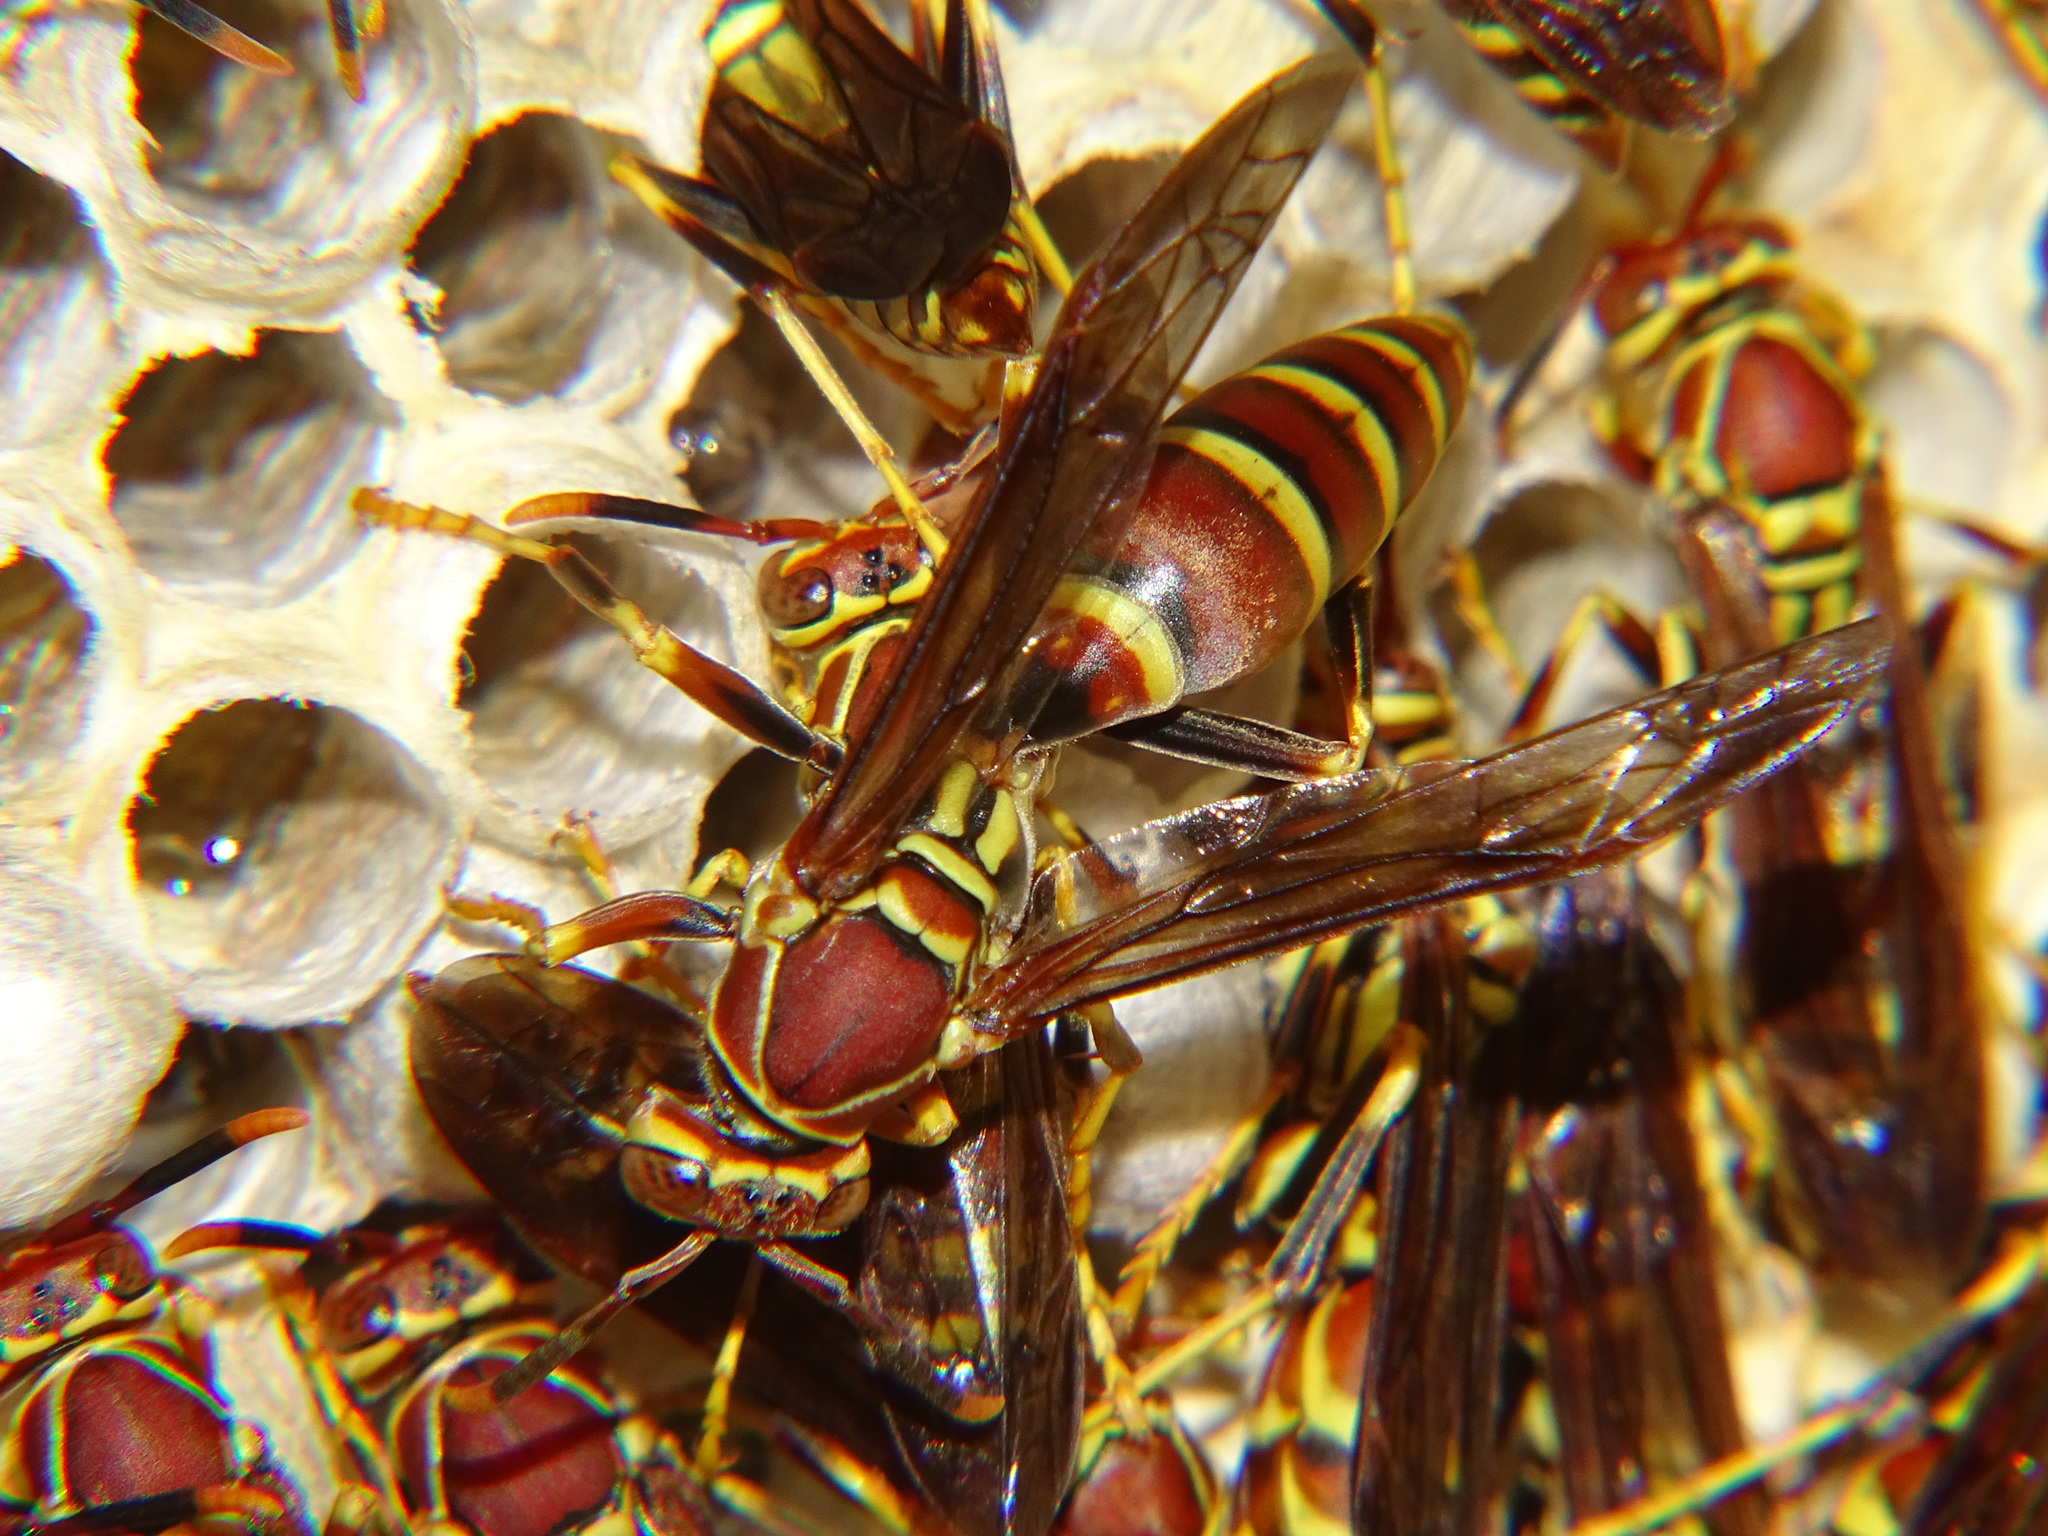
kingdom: Animalia
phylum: Arthropoda
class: Insecta
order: Hymenoptera
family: Eumenidae
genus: Polistes
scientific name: Polistes exclamans
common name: Paper wasp
